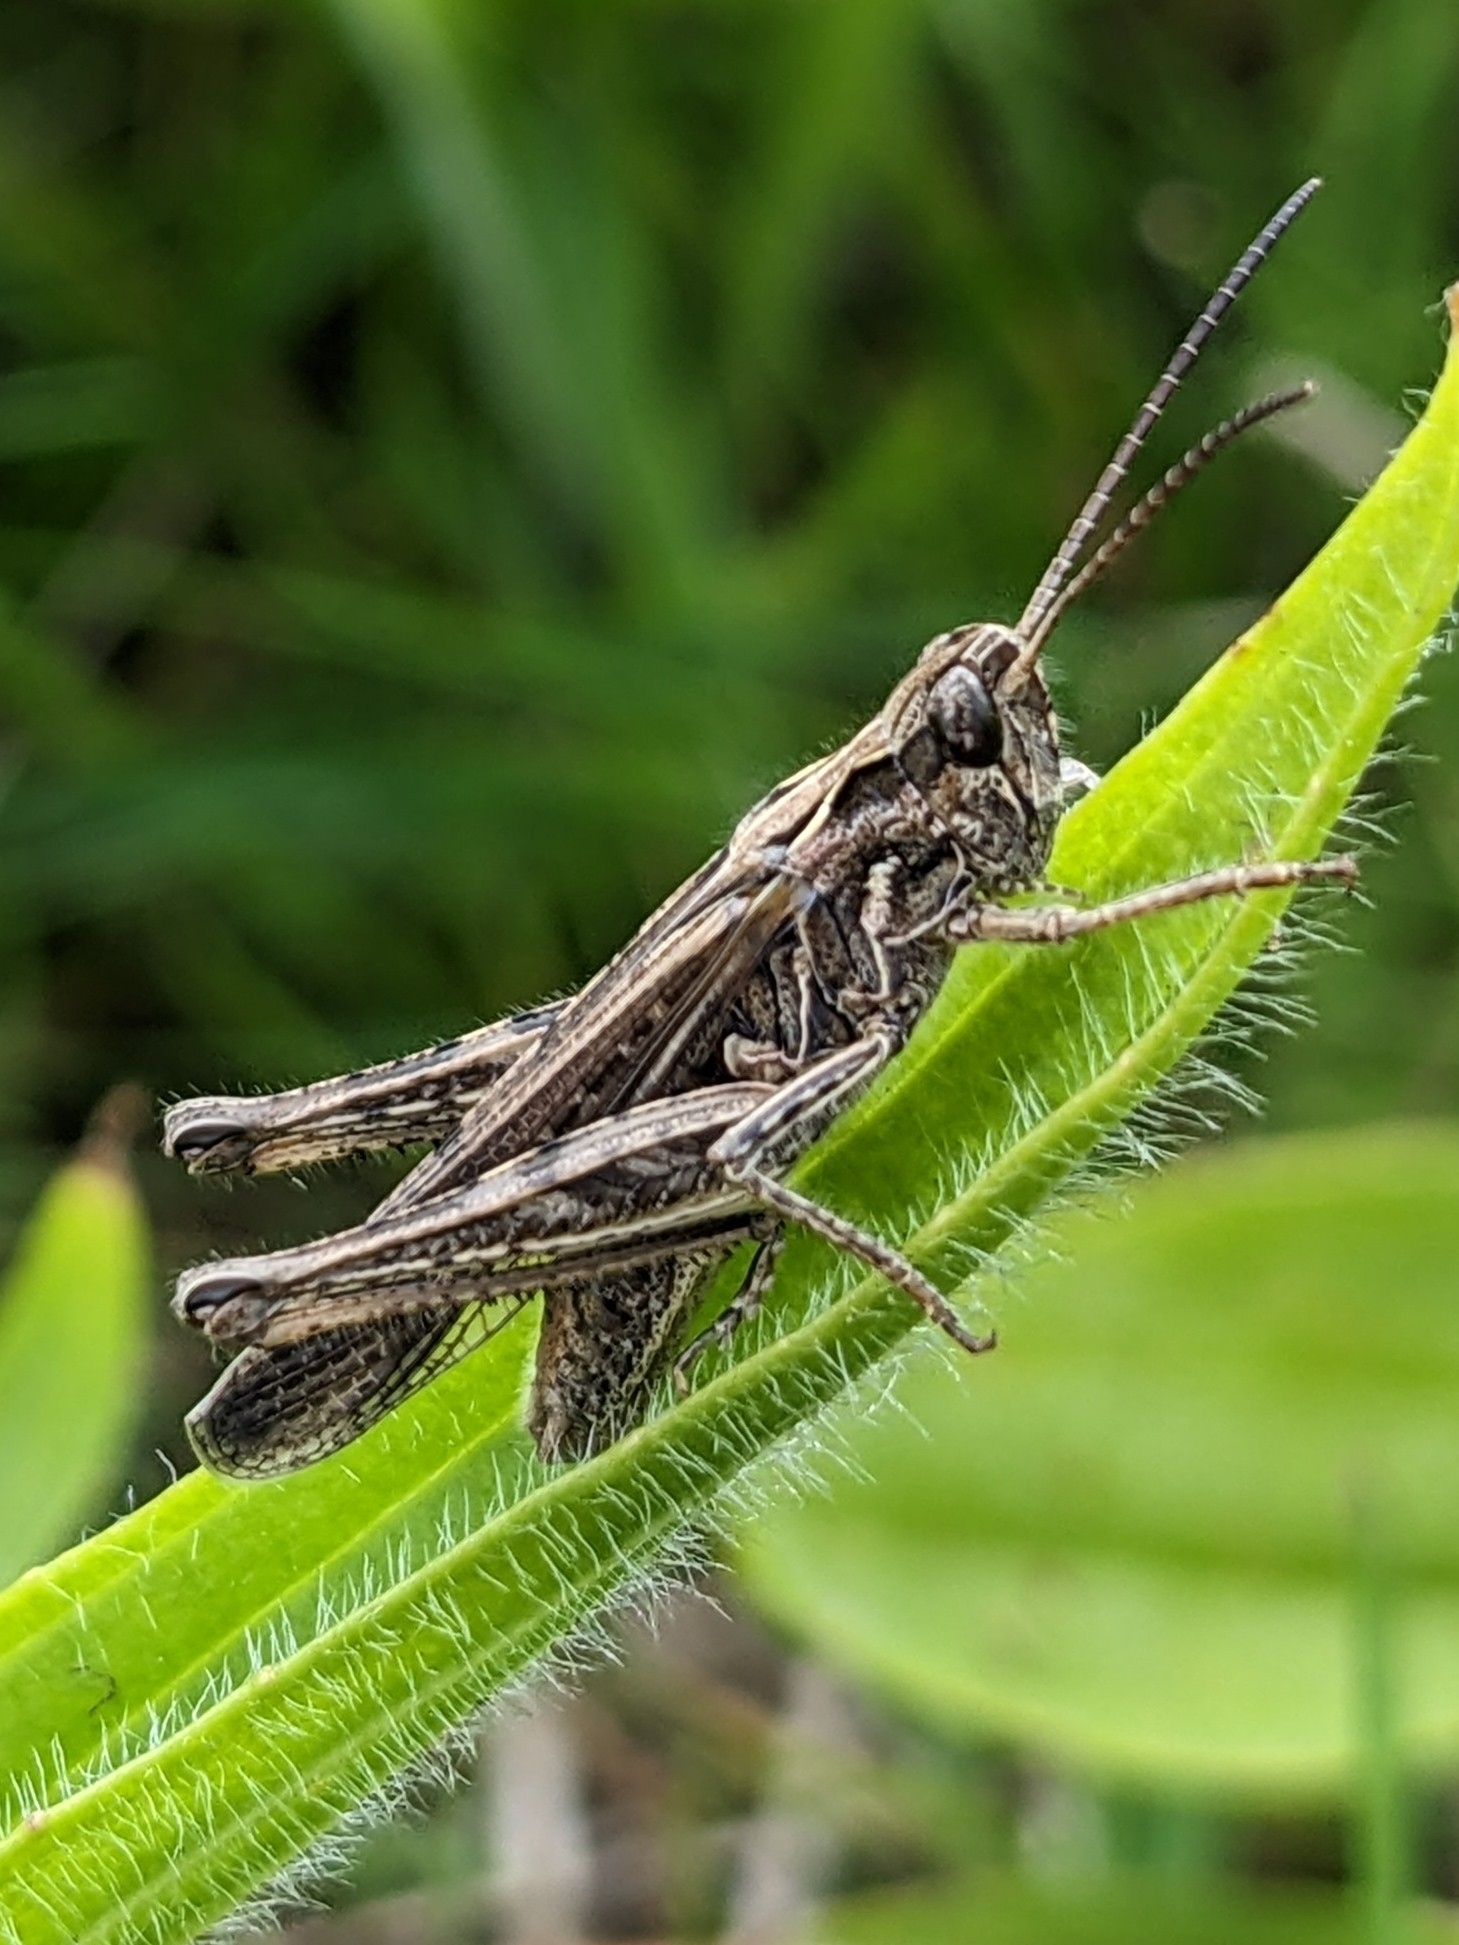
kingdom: Animalia
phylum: Arthropoda
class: Insecta
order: Orthoptera
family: Acrididae
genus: Chorthippus
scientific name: Chorthippus brunneus
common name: Field grasshopper
